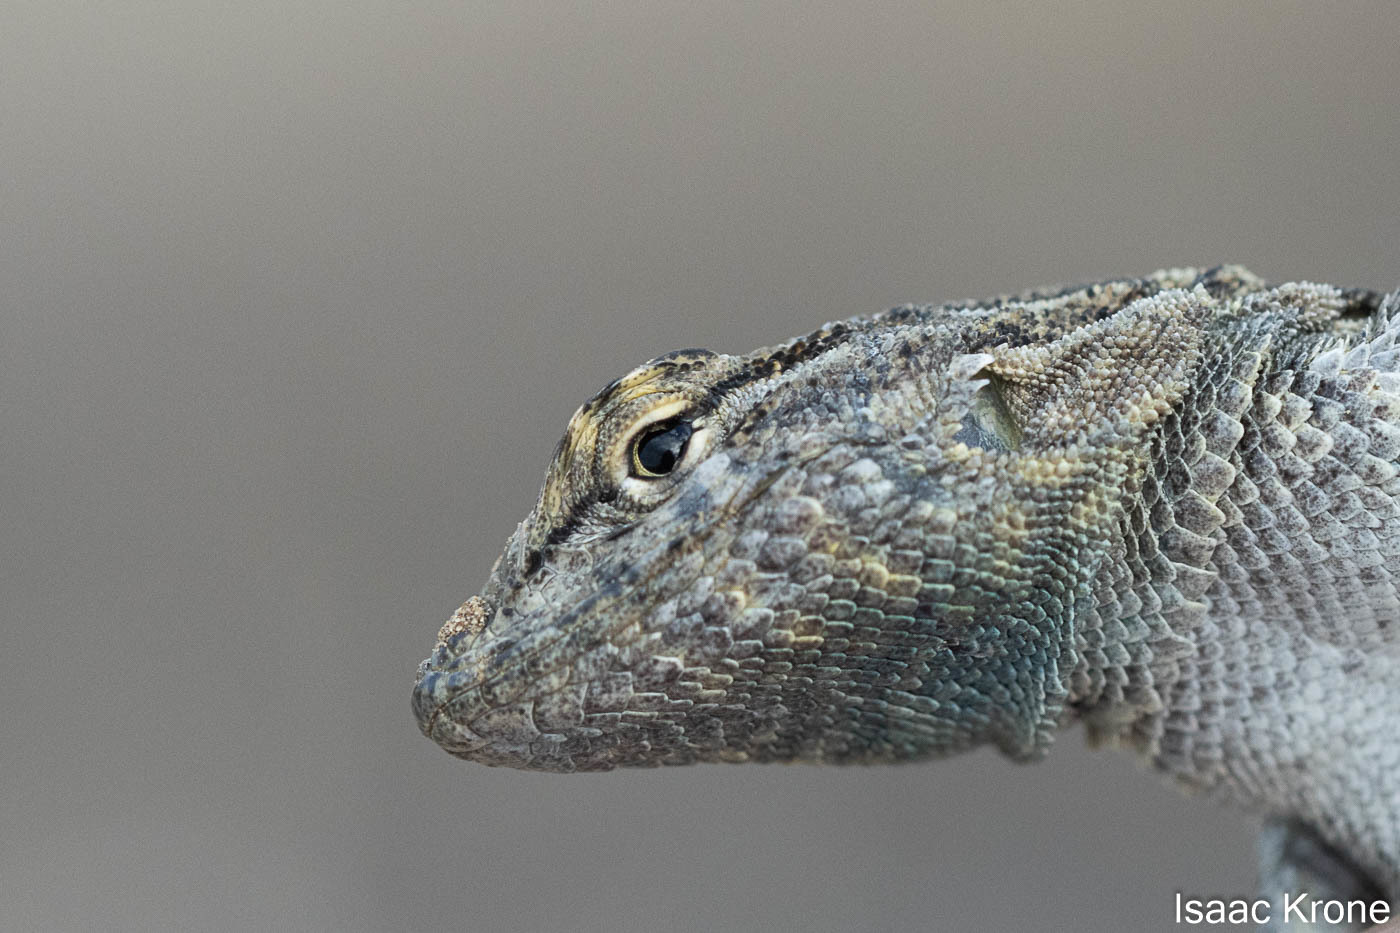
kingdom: Animalia
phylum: Chordata
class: Squamata
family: Phrynosomatidae
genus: Uta
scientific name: Uta stansburiana
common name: Side-blotched lizard
